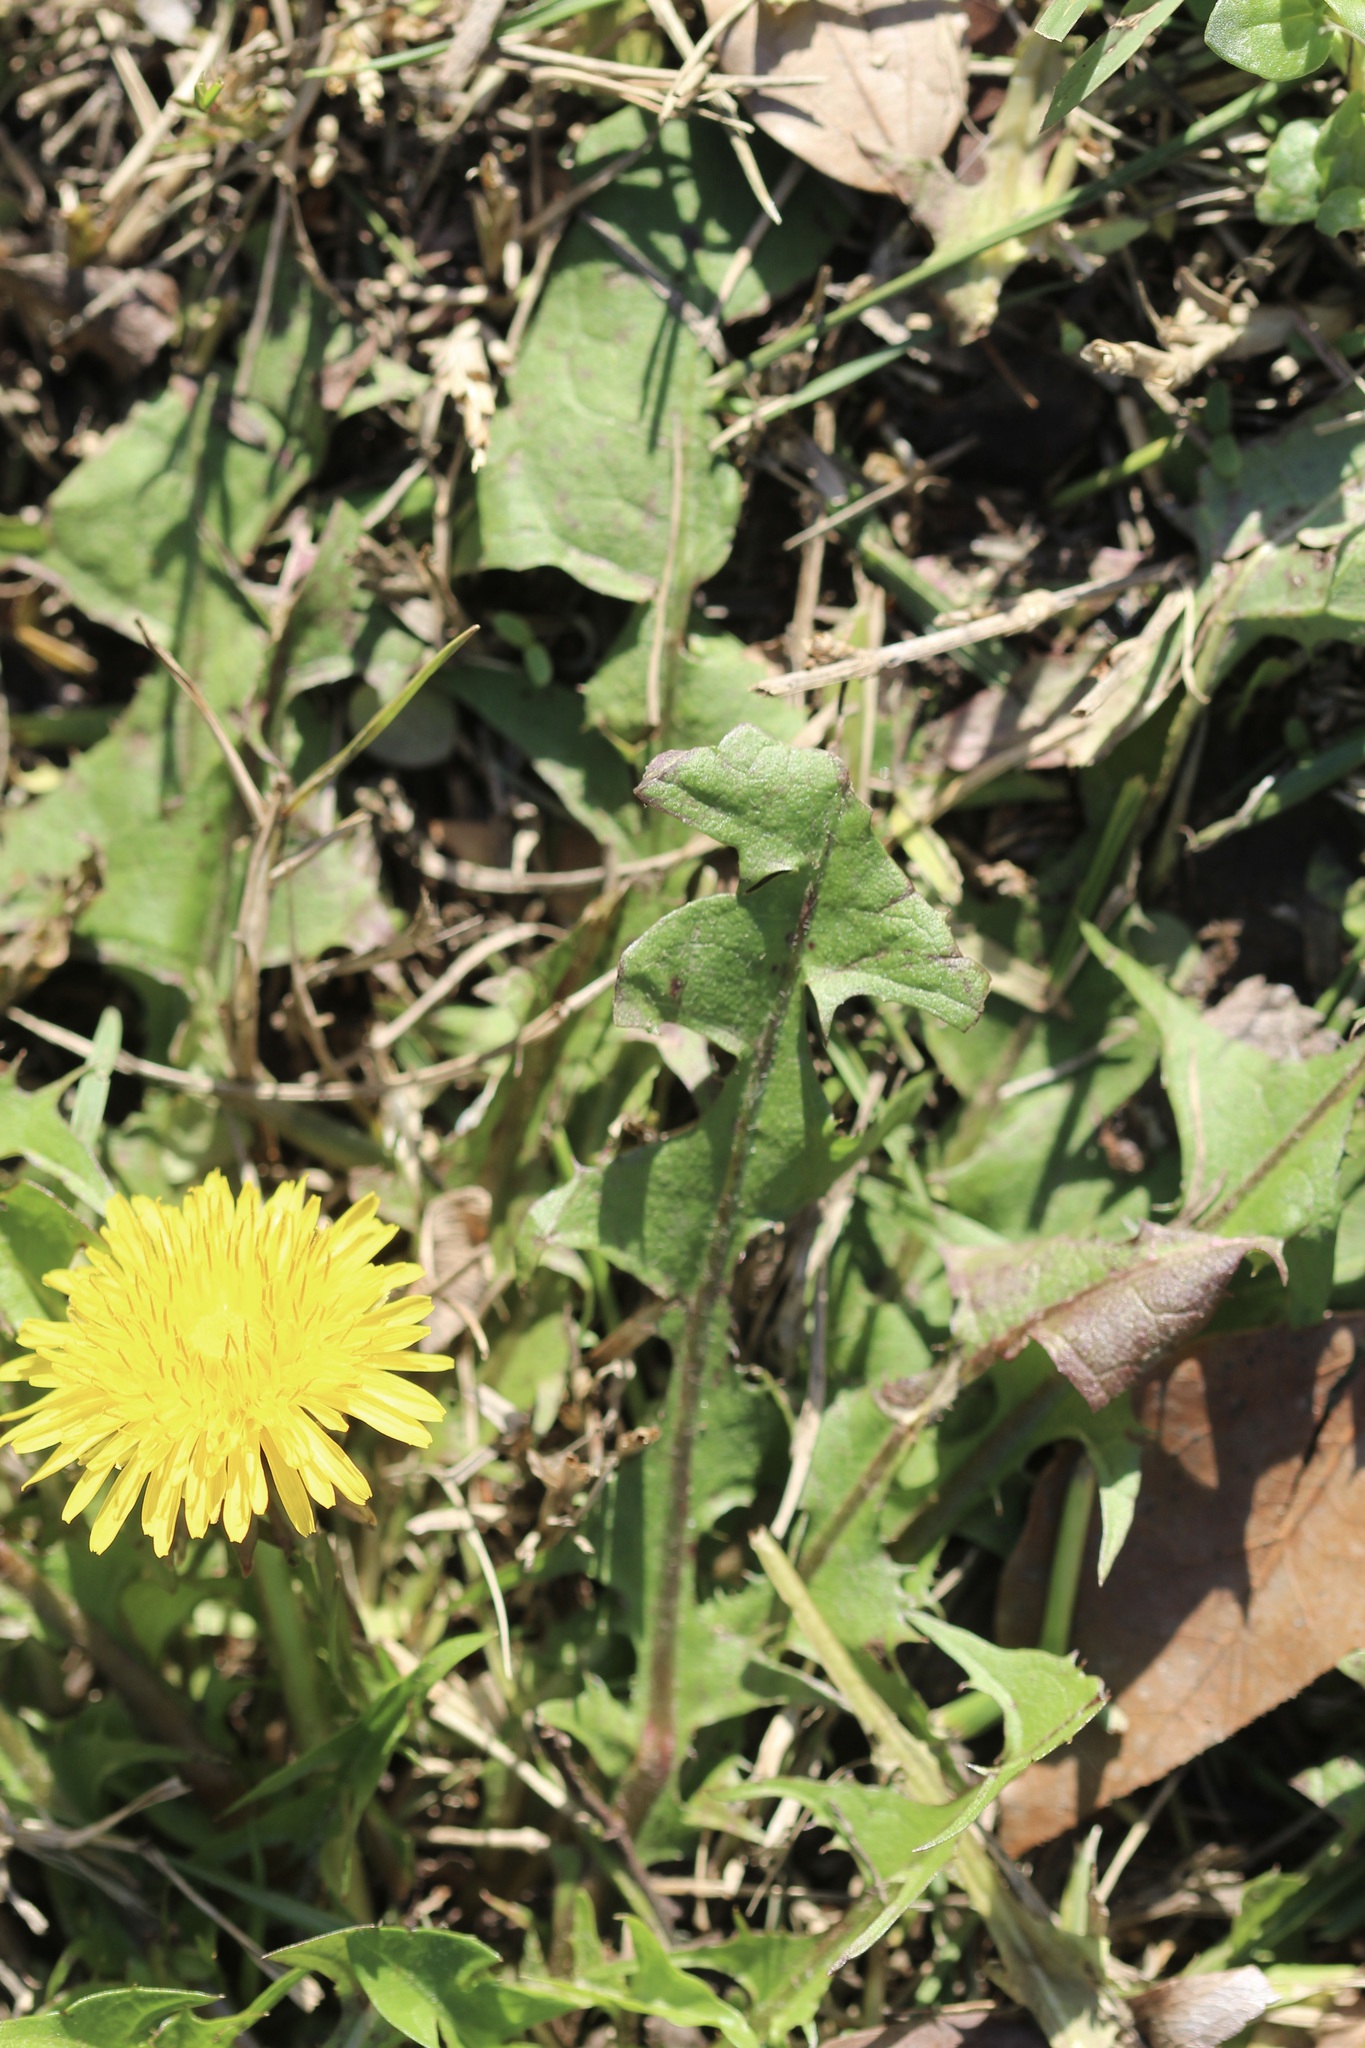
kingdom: Plantae
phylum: Tracheophyta
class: Magnoliopsida
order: Asterales
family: Asteraceae
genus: Taraxacum
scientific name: Taraxacum officinale
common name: Common dandelion
